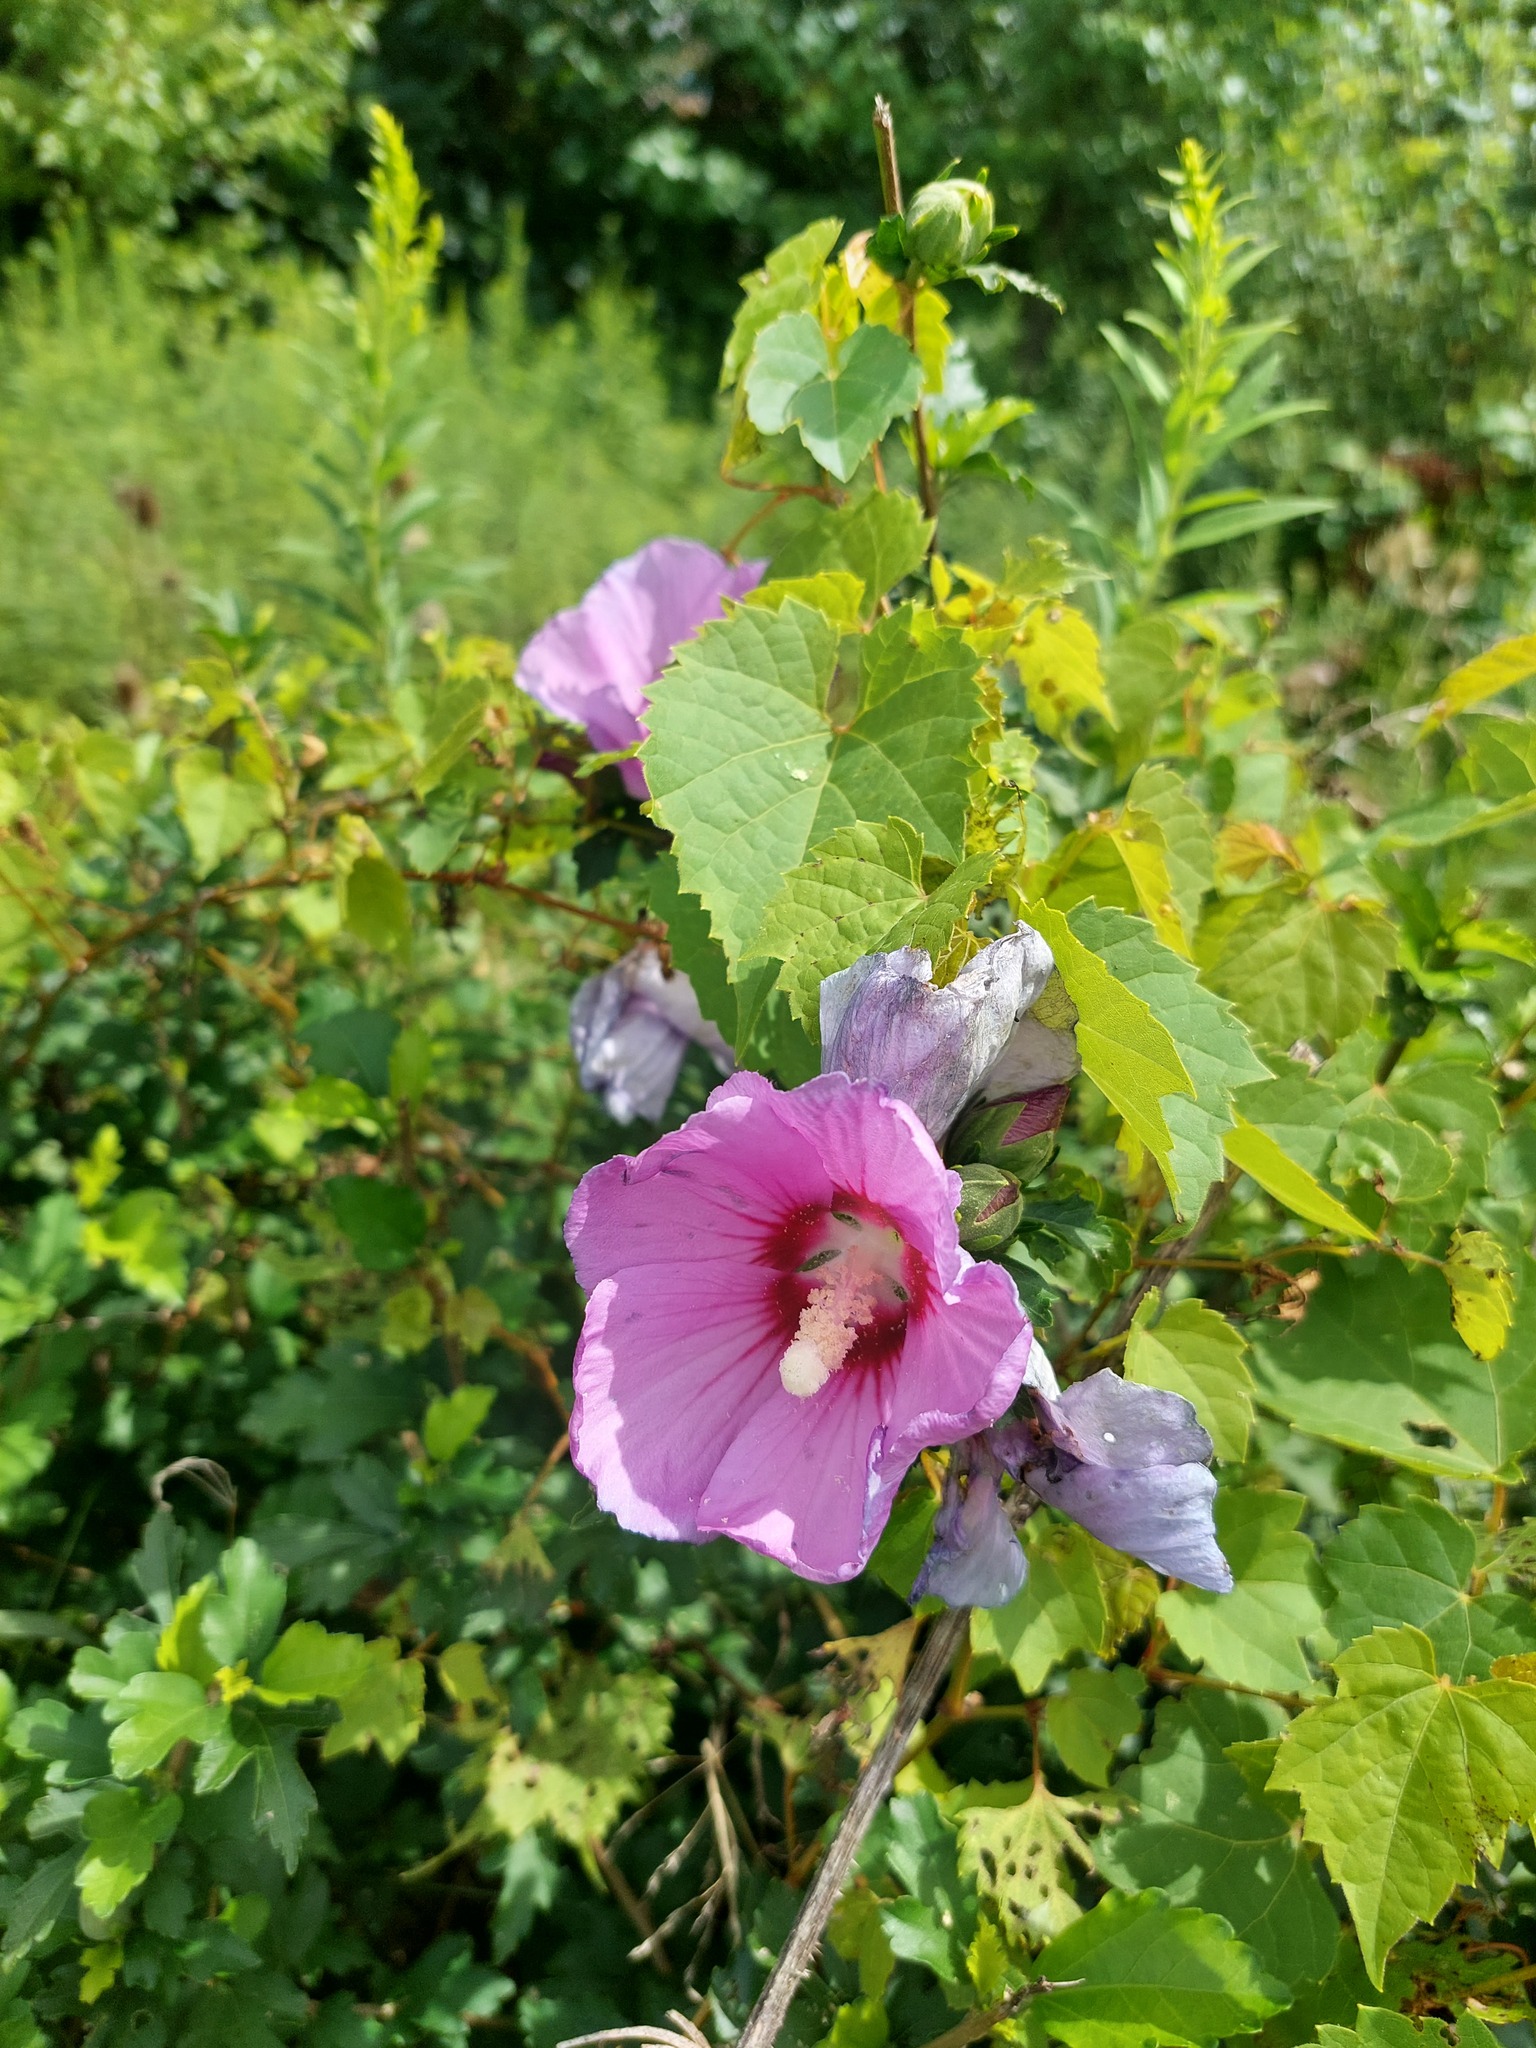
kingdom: Plantae
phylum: Tracheophyta
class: Magnoliopsida
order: Malvales
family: Malvaceae
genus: Hibiscus
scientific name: Hibiscus syriacus
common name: Syrian ketmia
